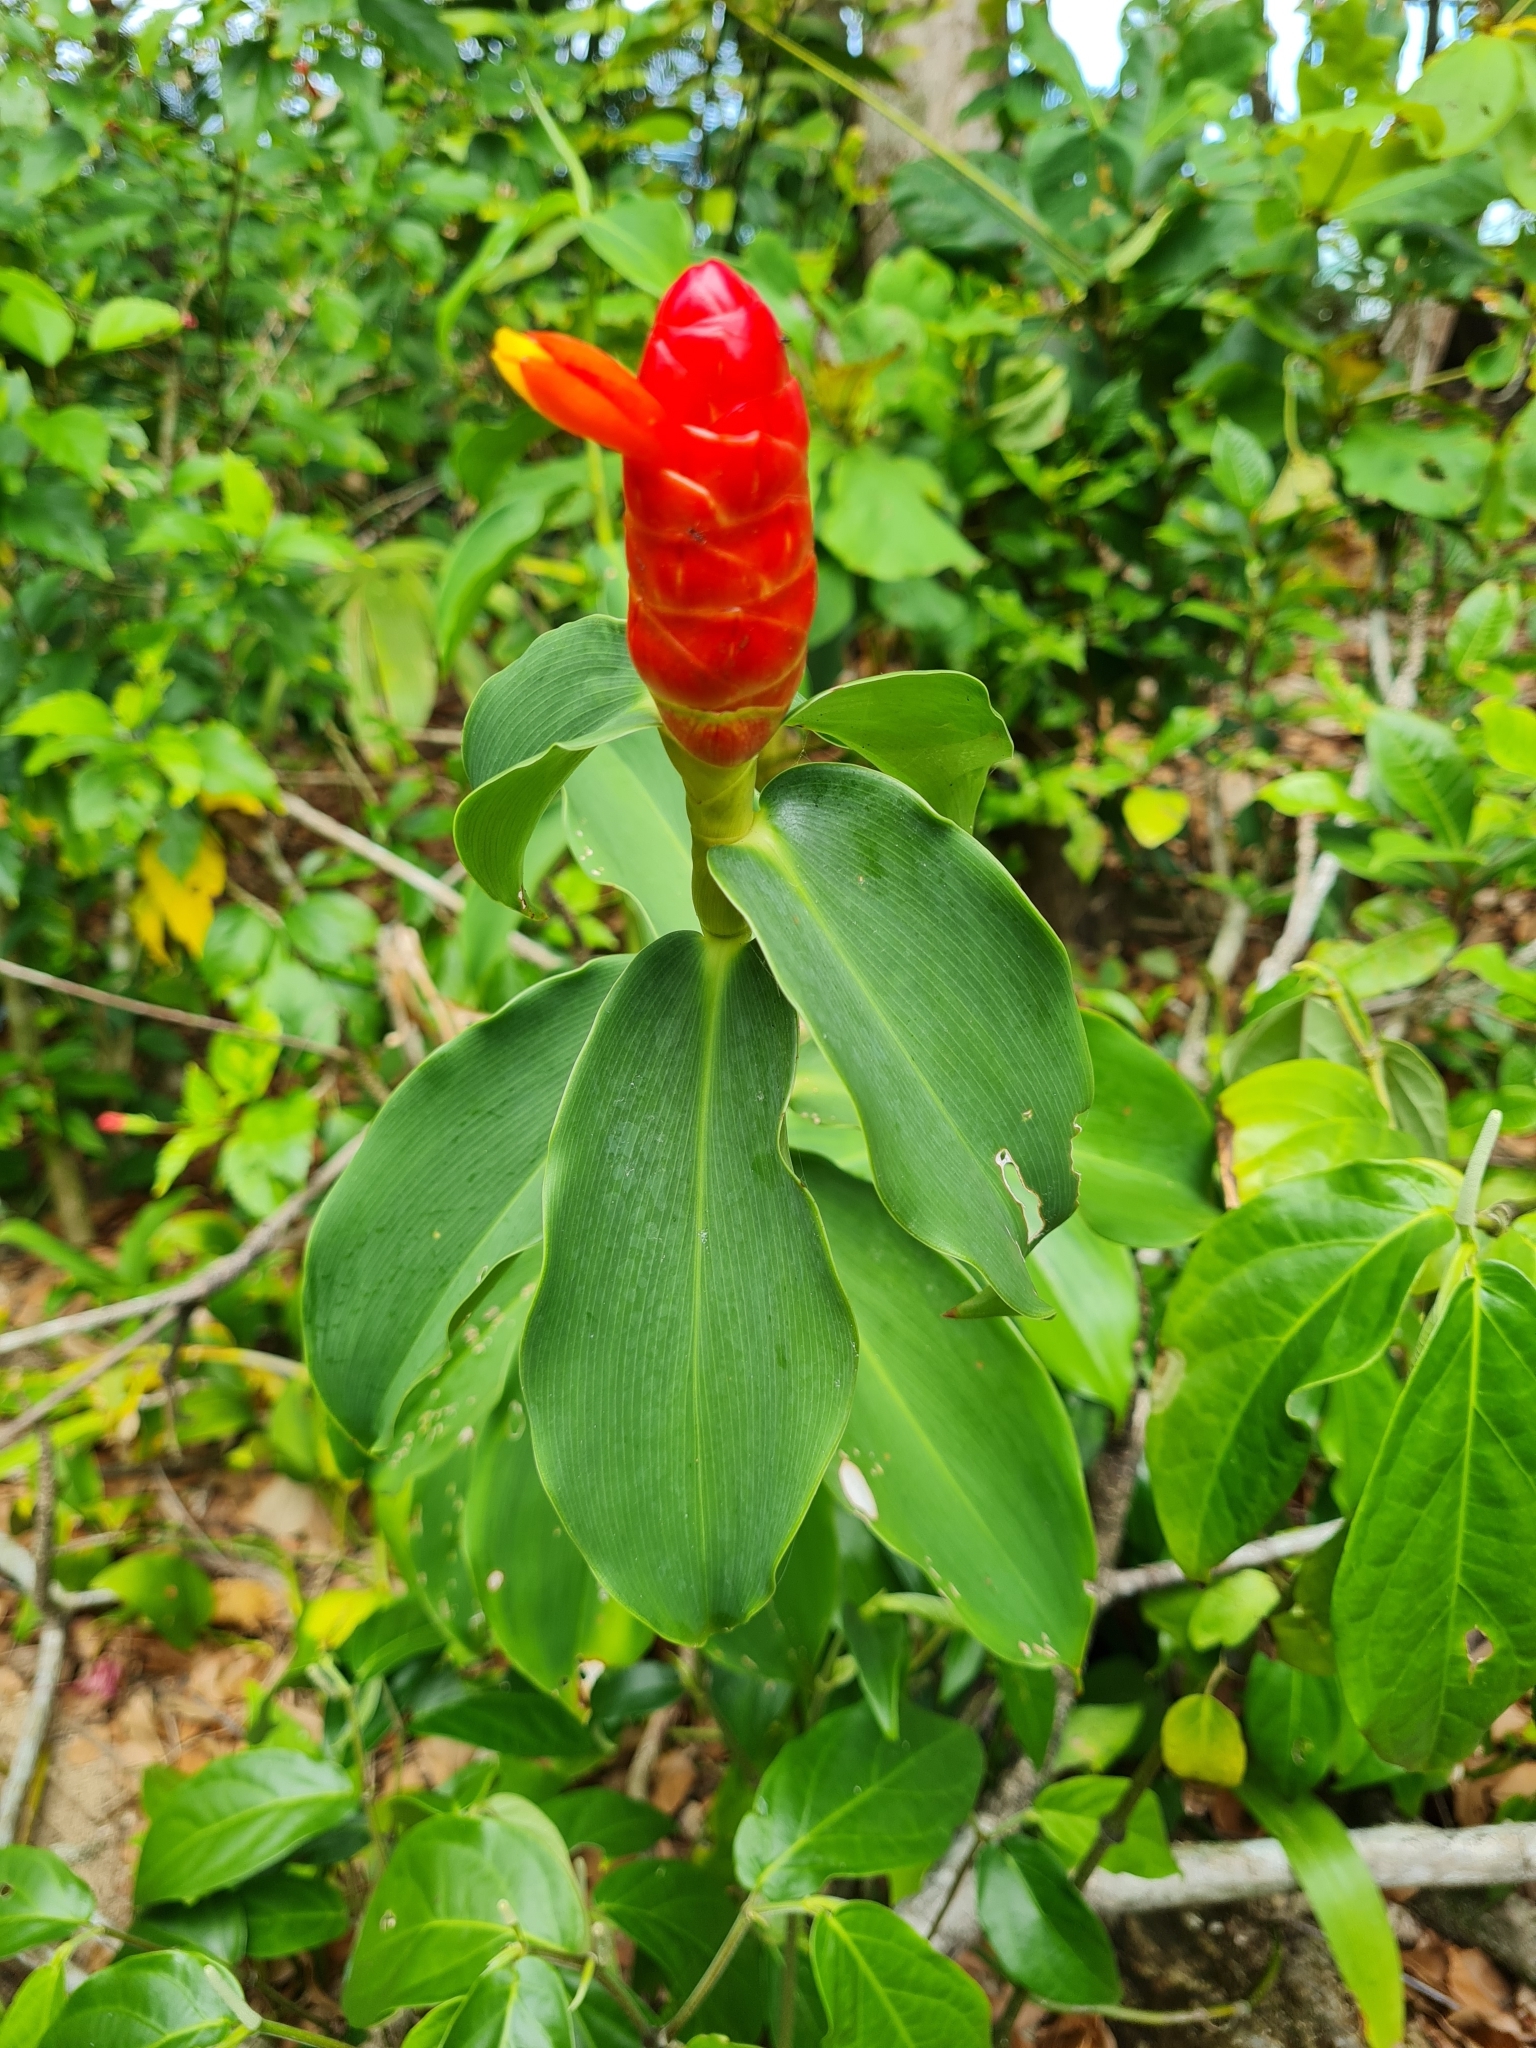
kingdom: Plantae
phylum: Tracheophyta
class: Liliopsida
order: Zingiberales
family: Costaceae
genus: Costus
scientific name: Costus woodsonii
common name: Scarlet spiral-ginger
